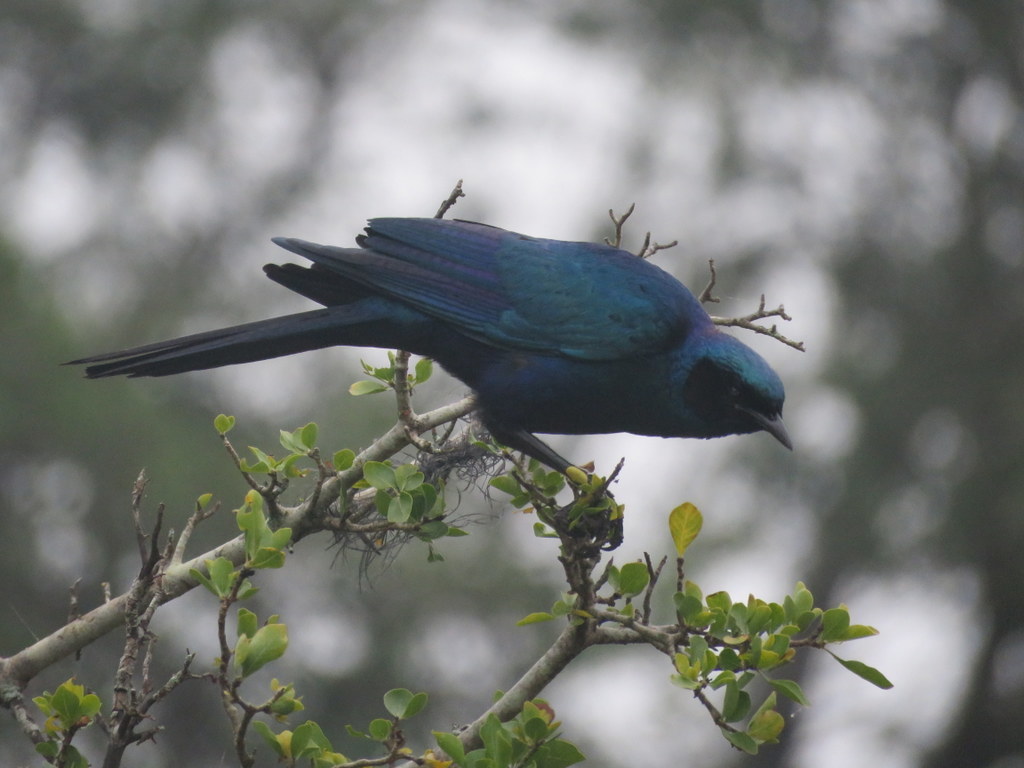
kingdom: Animalia
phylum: Chordata
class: Aves
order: Passeriformes
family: Sturnidae
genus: Lamprotornis
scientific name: Lamprotornis australis
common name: Burchell's starling
